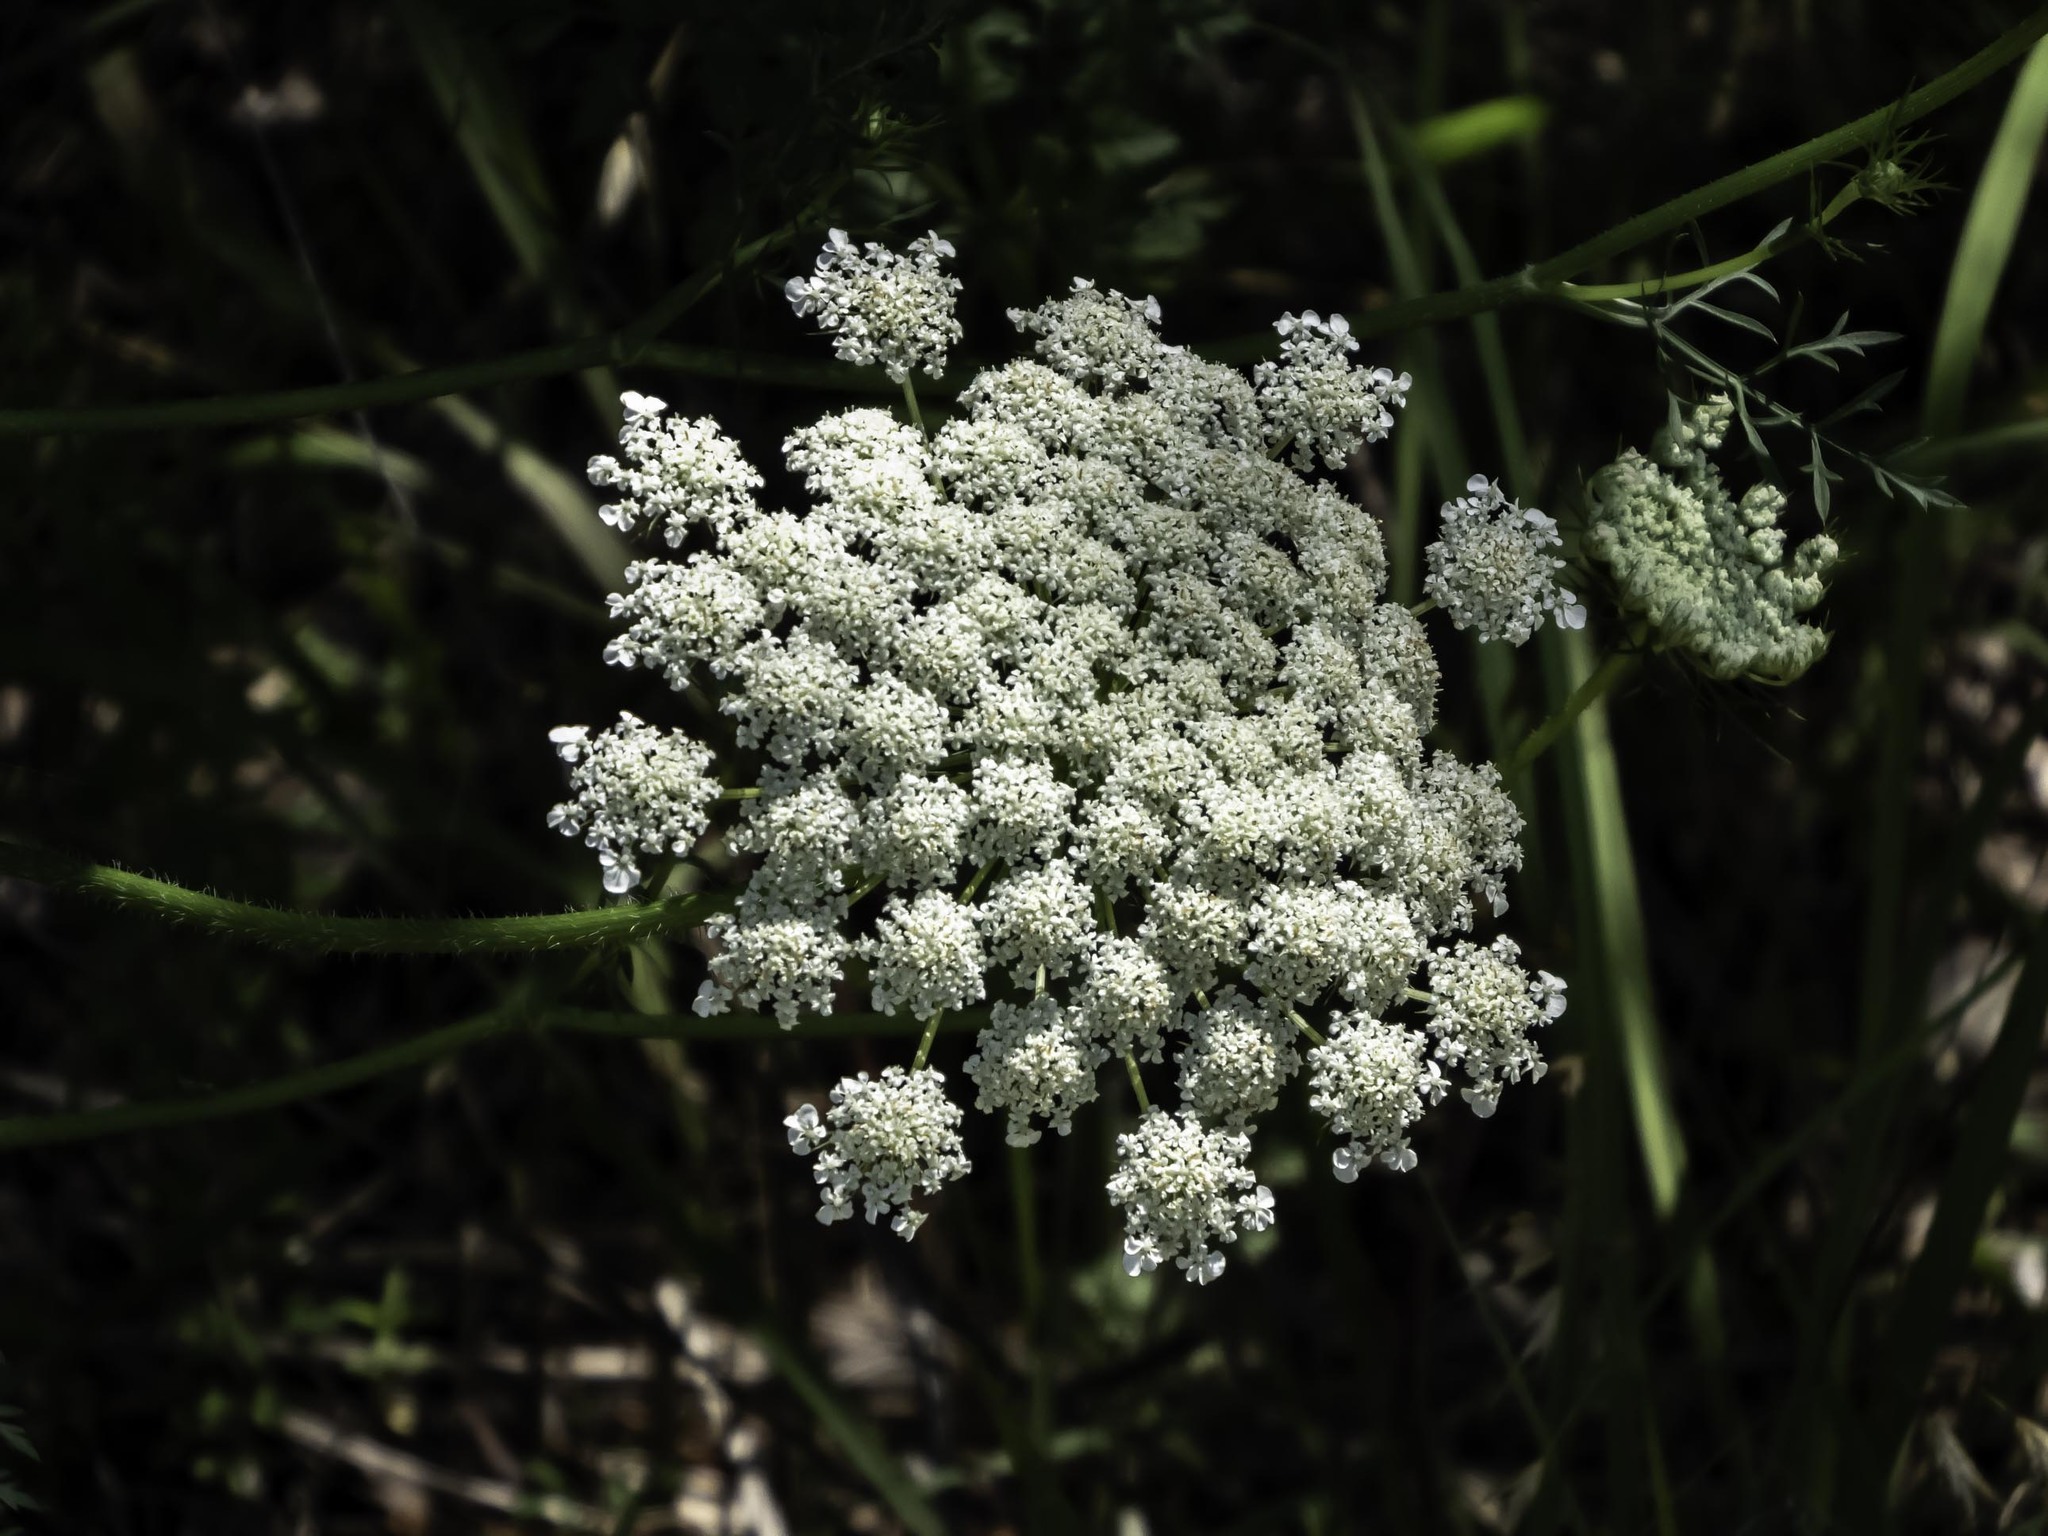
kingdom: Plantae
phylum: Tracheophyta
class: Magnoliopsida
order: Apiales
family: Apiaceae
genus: Daucus
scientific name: Daucus carota
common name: Wild carrot
